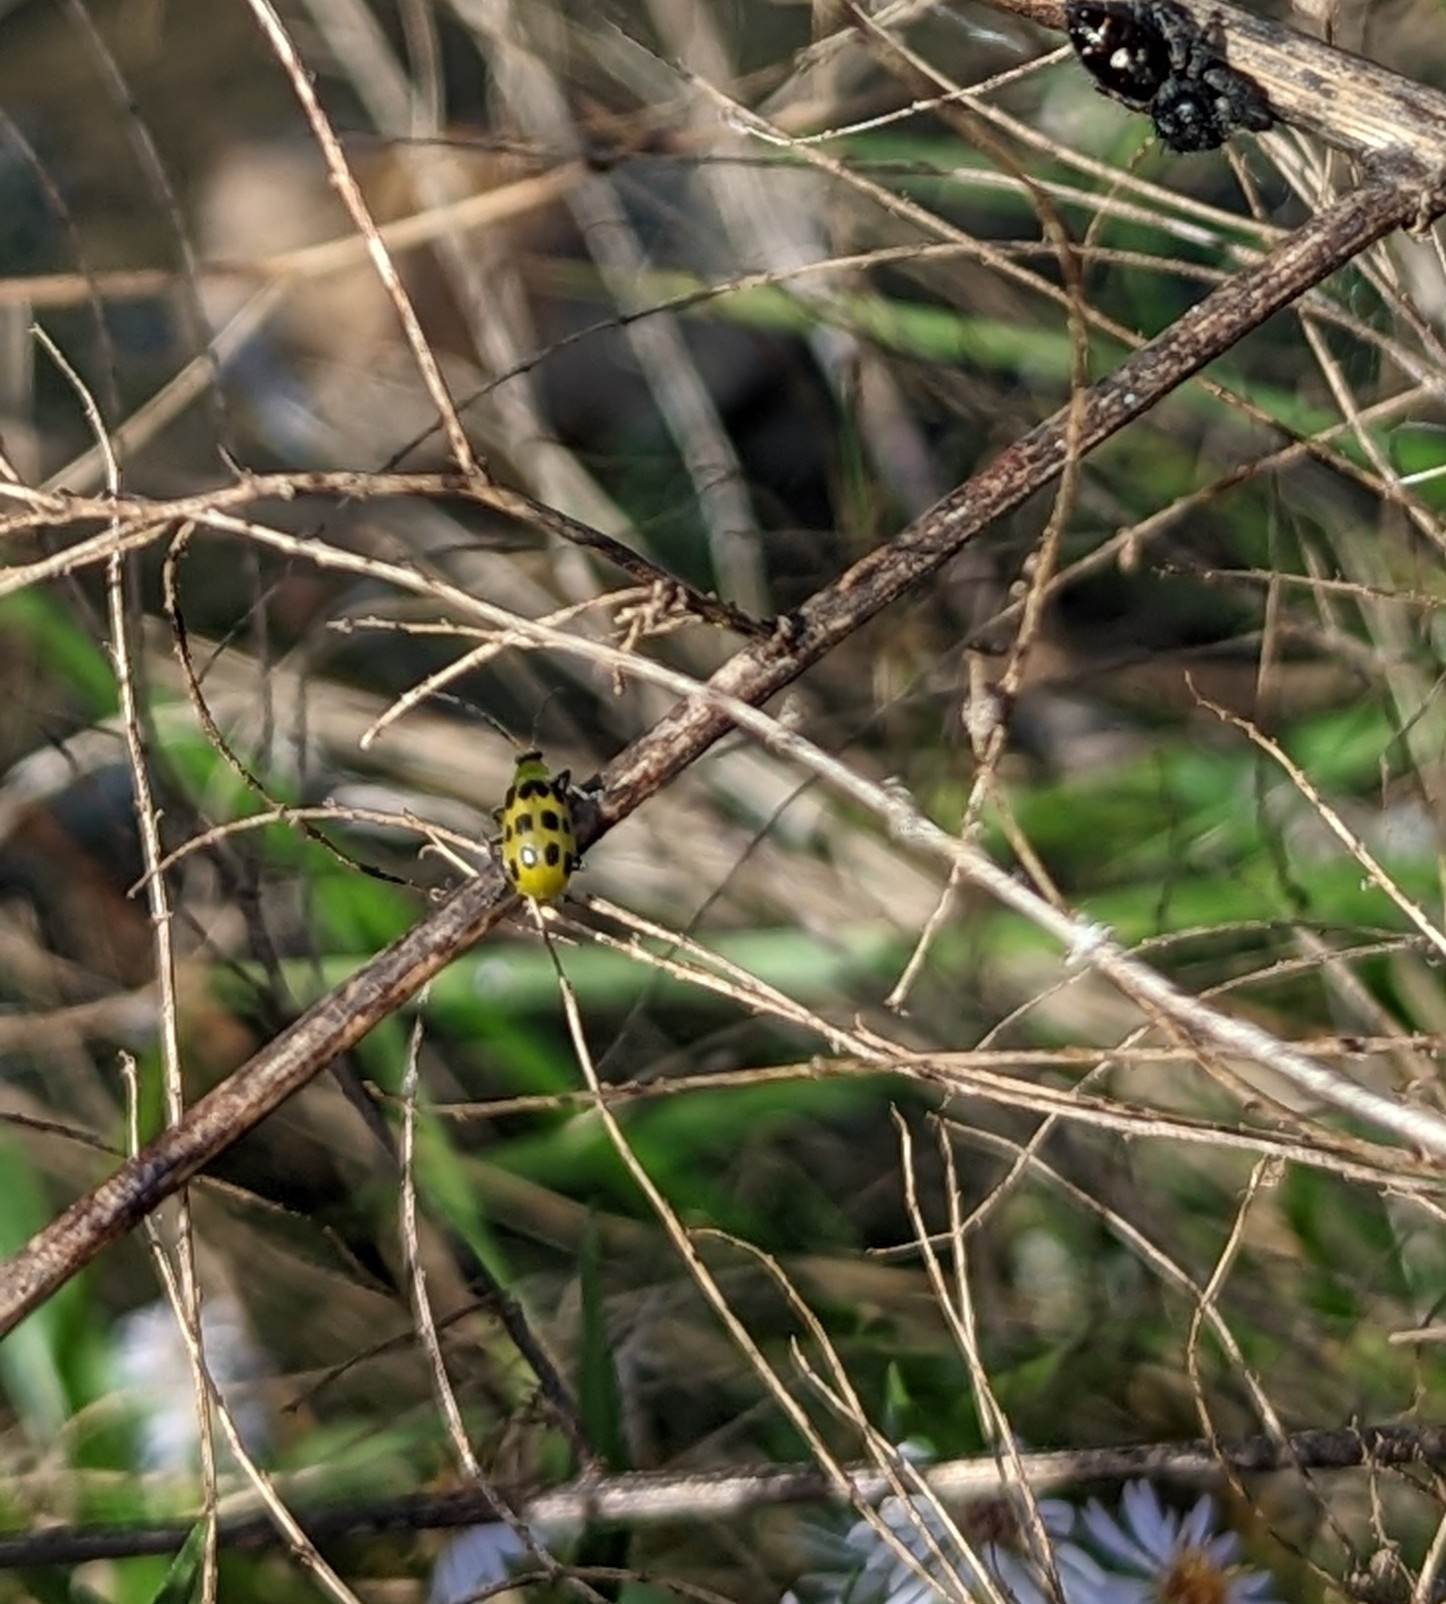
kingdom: Animalia
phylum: Arthropoda
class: Insecta
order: Coleoptera
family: Chrysomelidae
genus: Diabrotica
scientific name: Diabrotica undecimpunctata
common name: Spotted cucumber beetle
